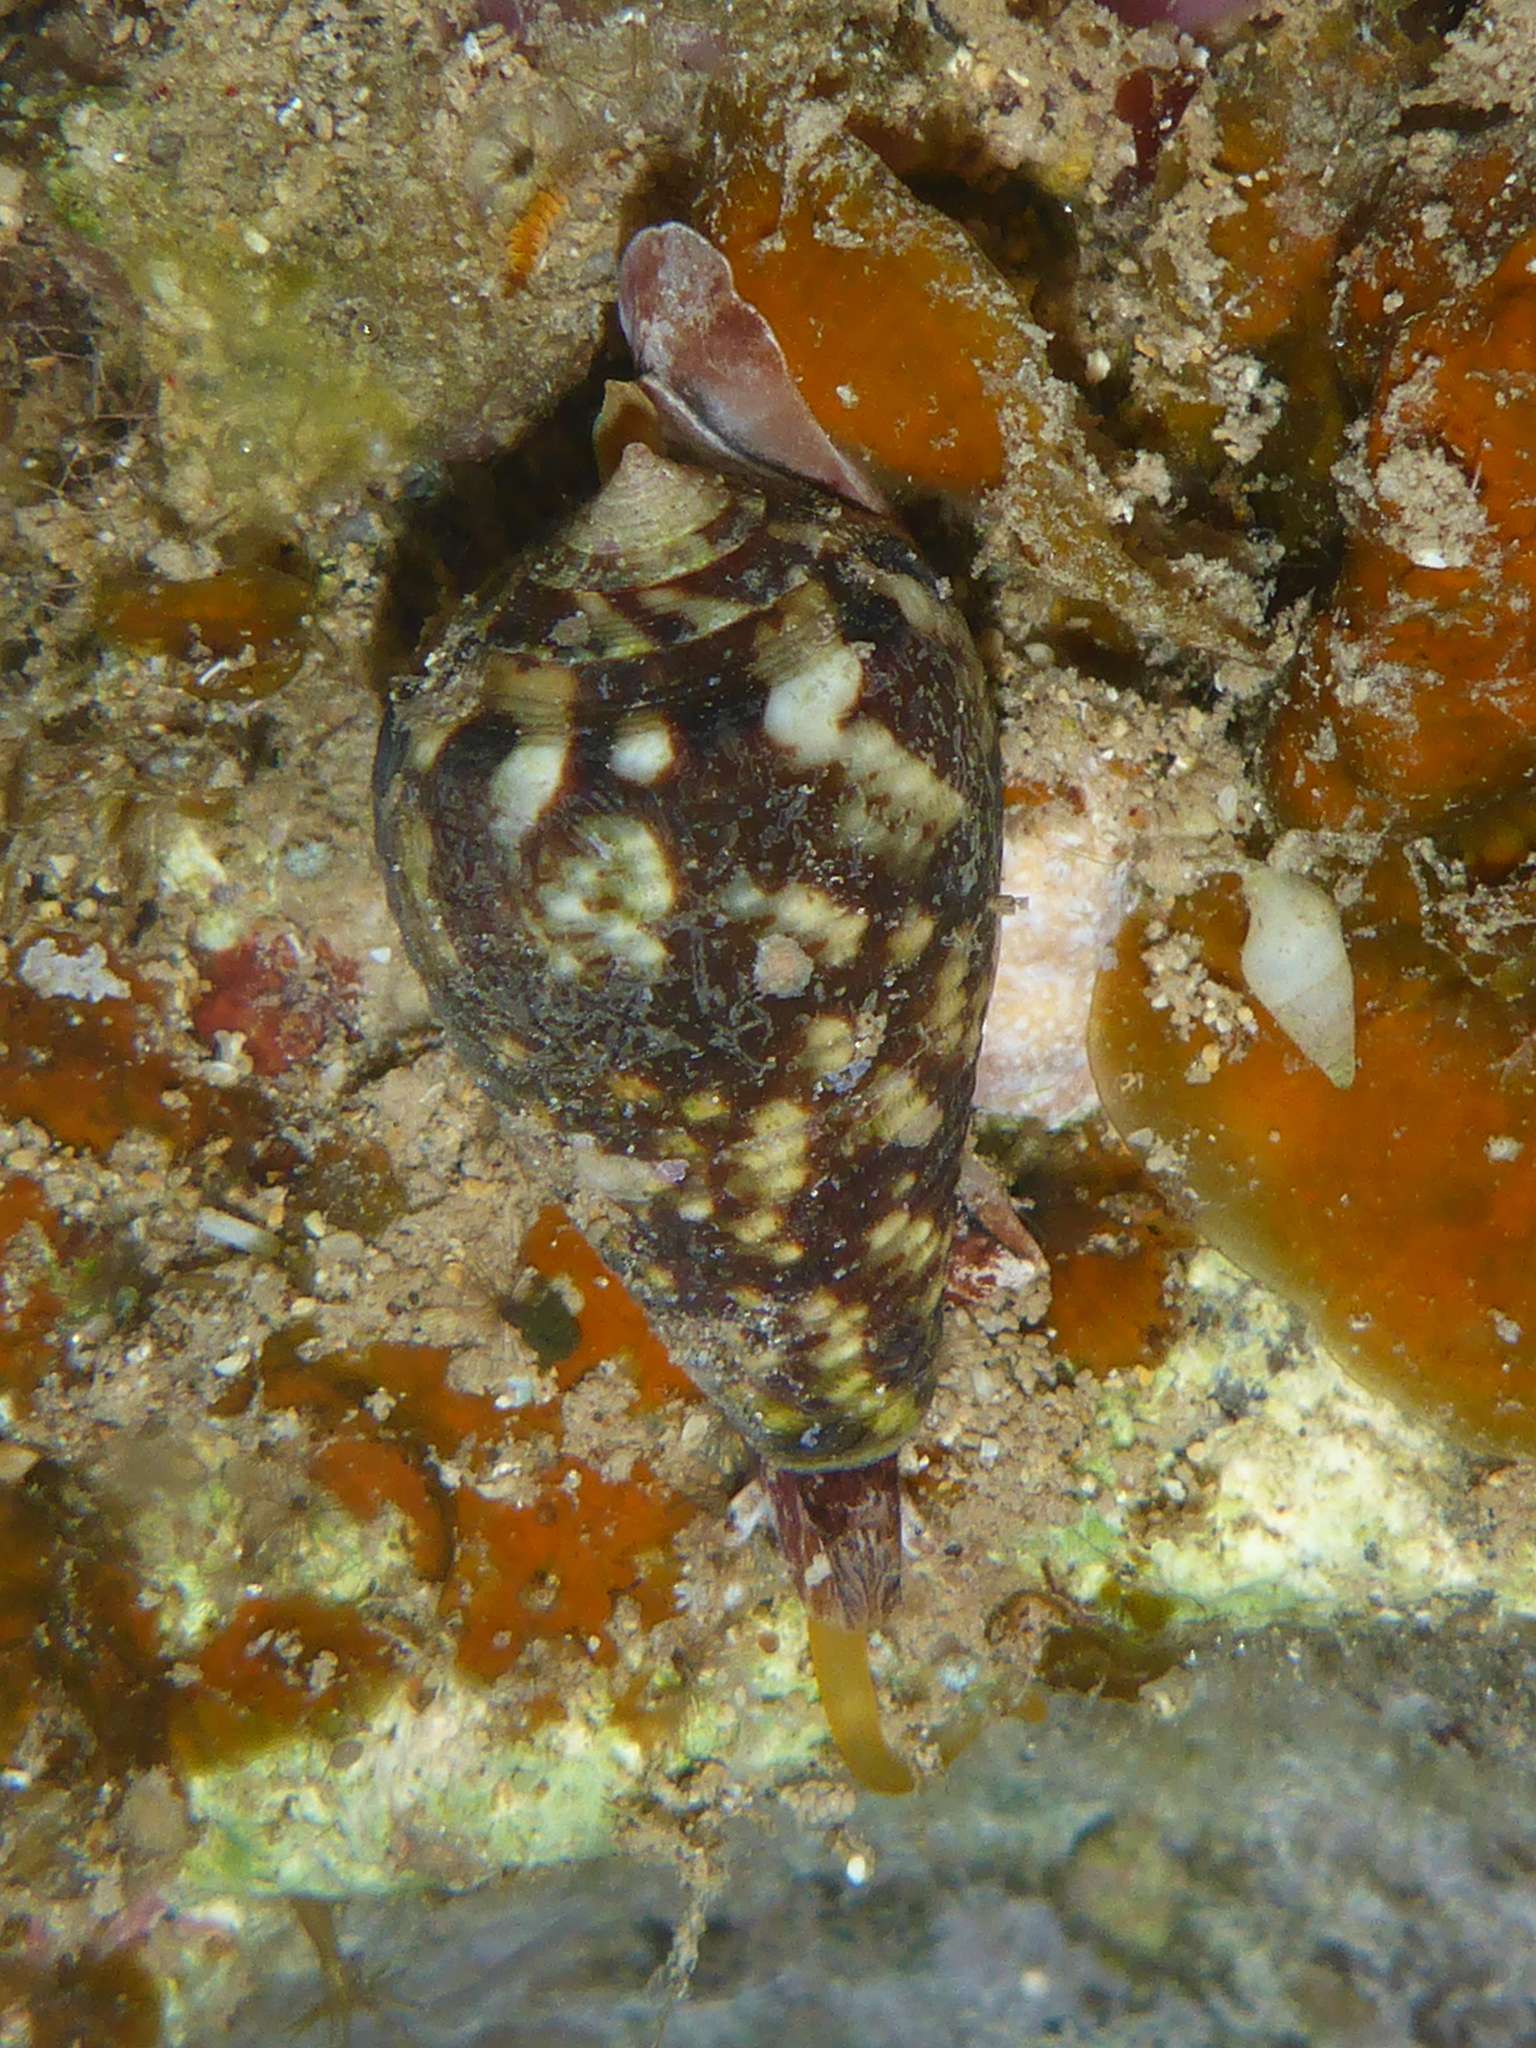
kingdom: Animalia
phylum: Mollusca
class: Gastropoda
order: Neogastropoda
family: Conidae
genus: Conus
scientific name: Conus catus
